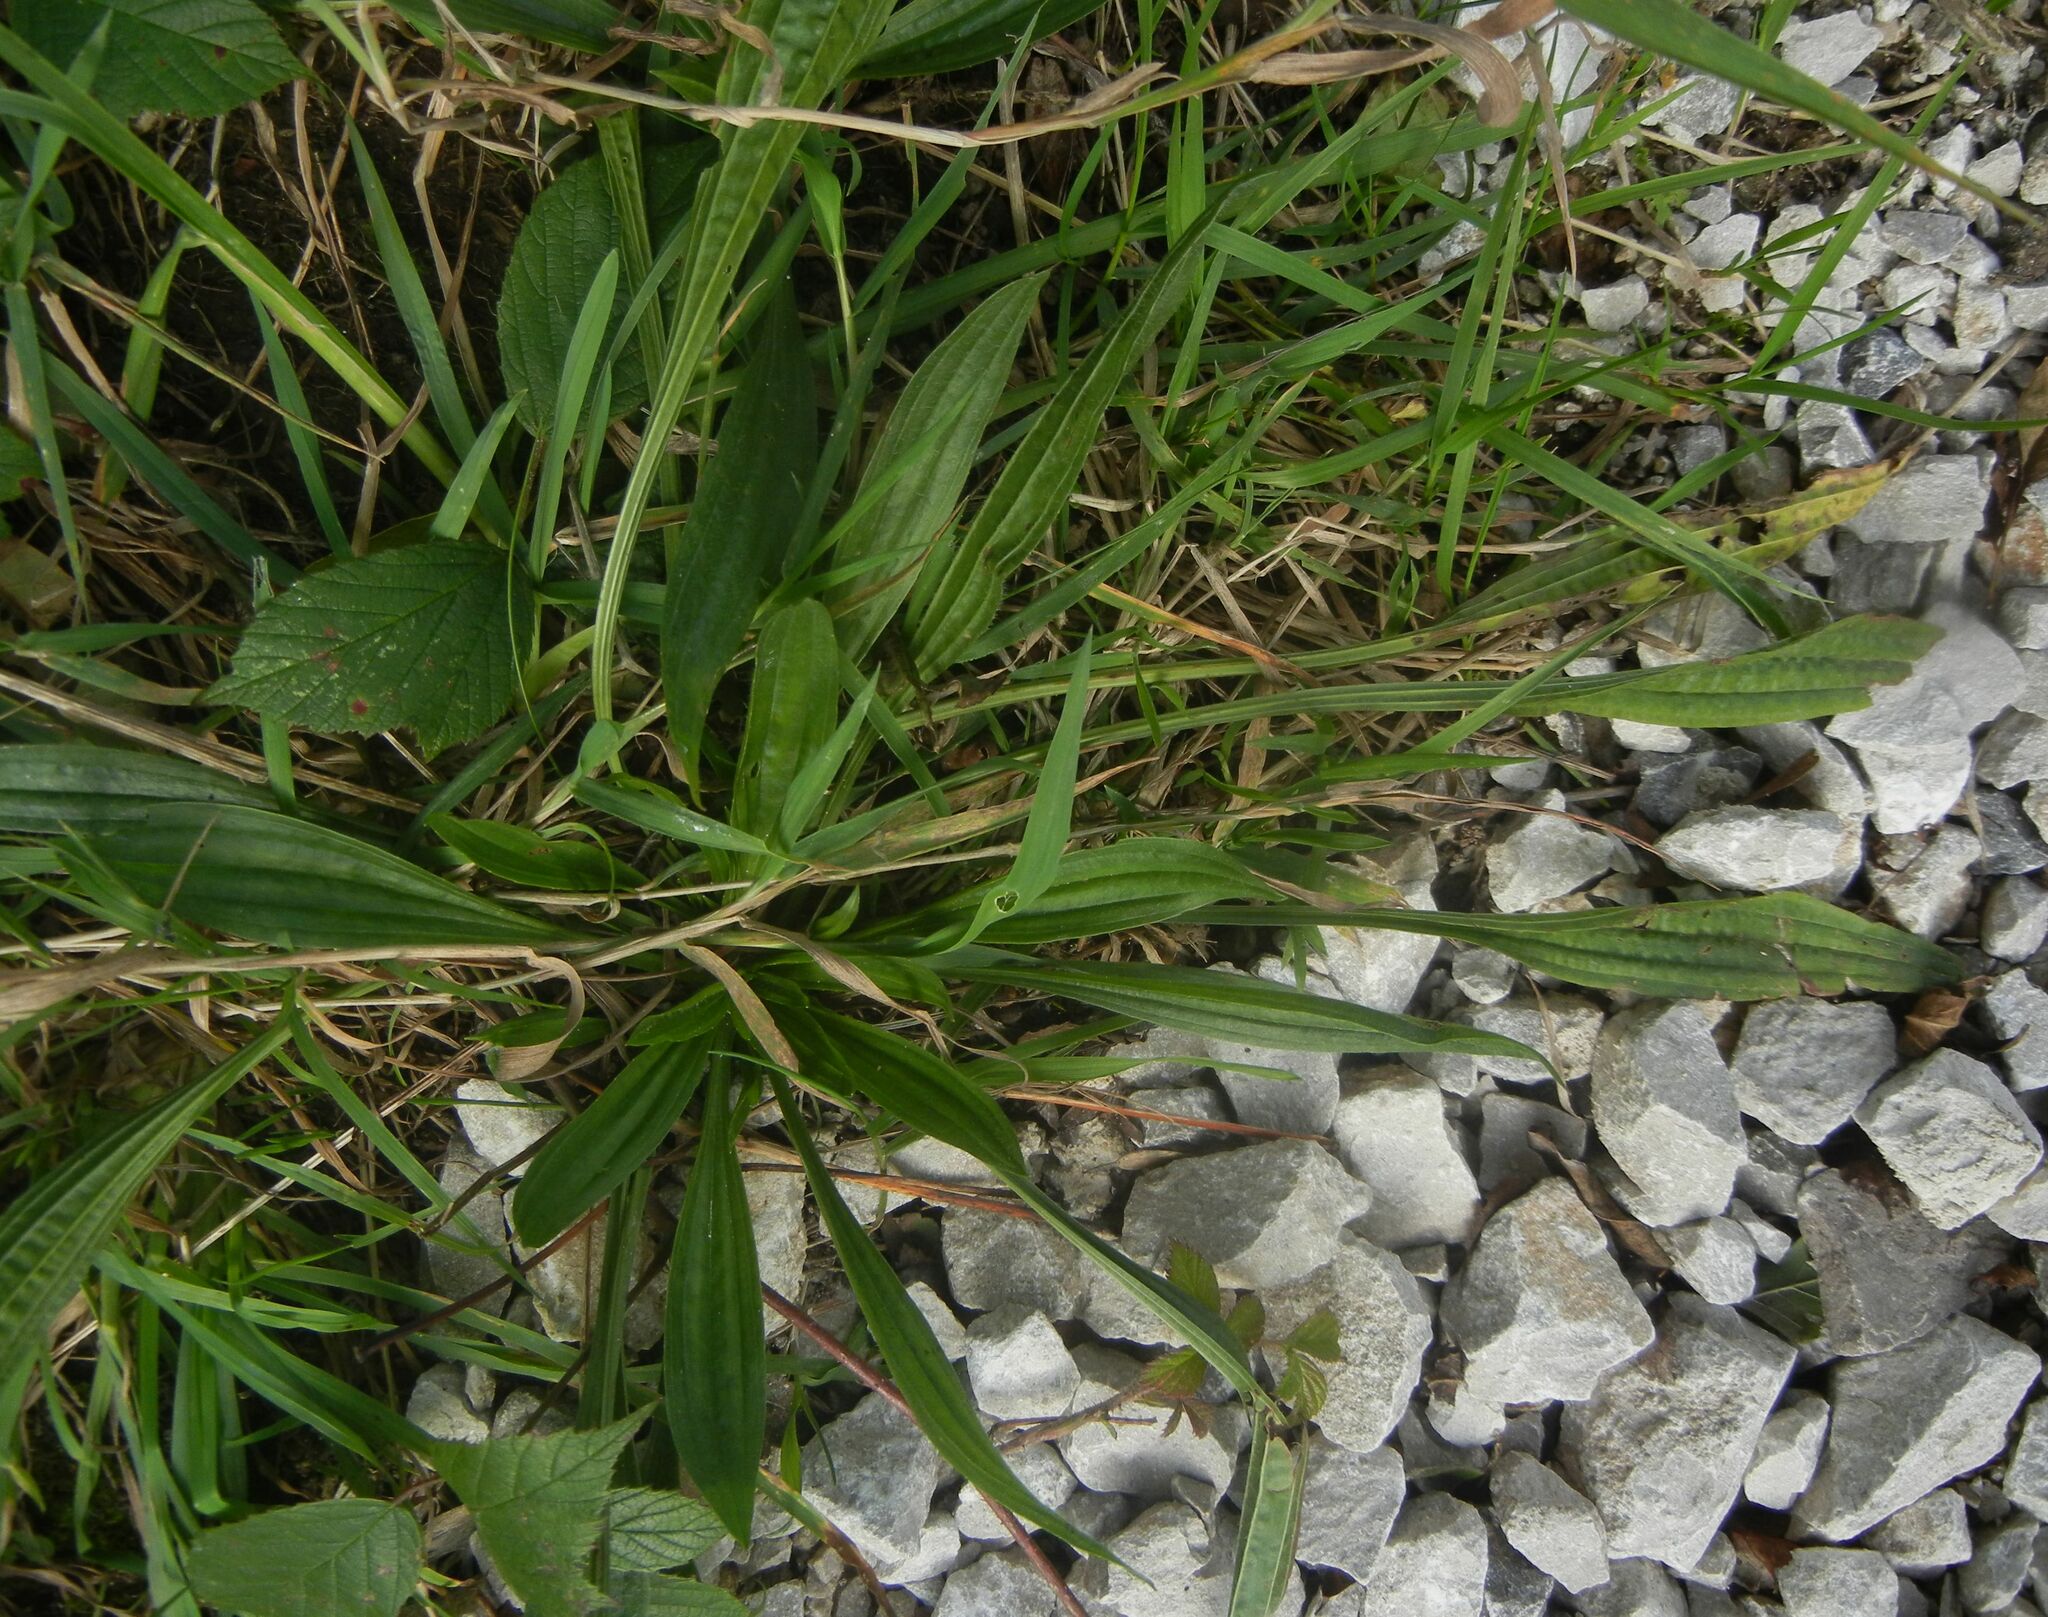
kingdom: Plantae
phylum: Tracheophyta
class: Magnoliopsida
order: Lamiales
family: Plantaginaceae
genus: Plantago
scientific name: Plantago lanceolata
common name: Ribwort plantain
